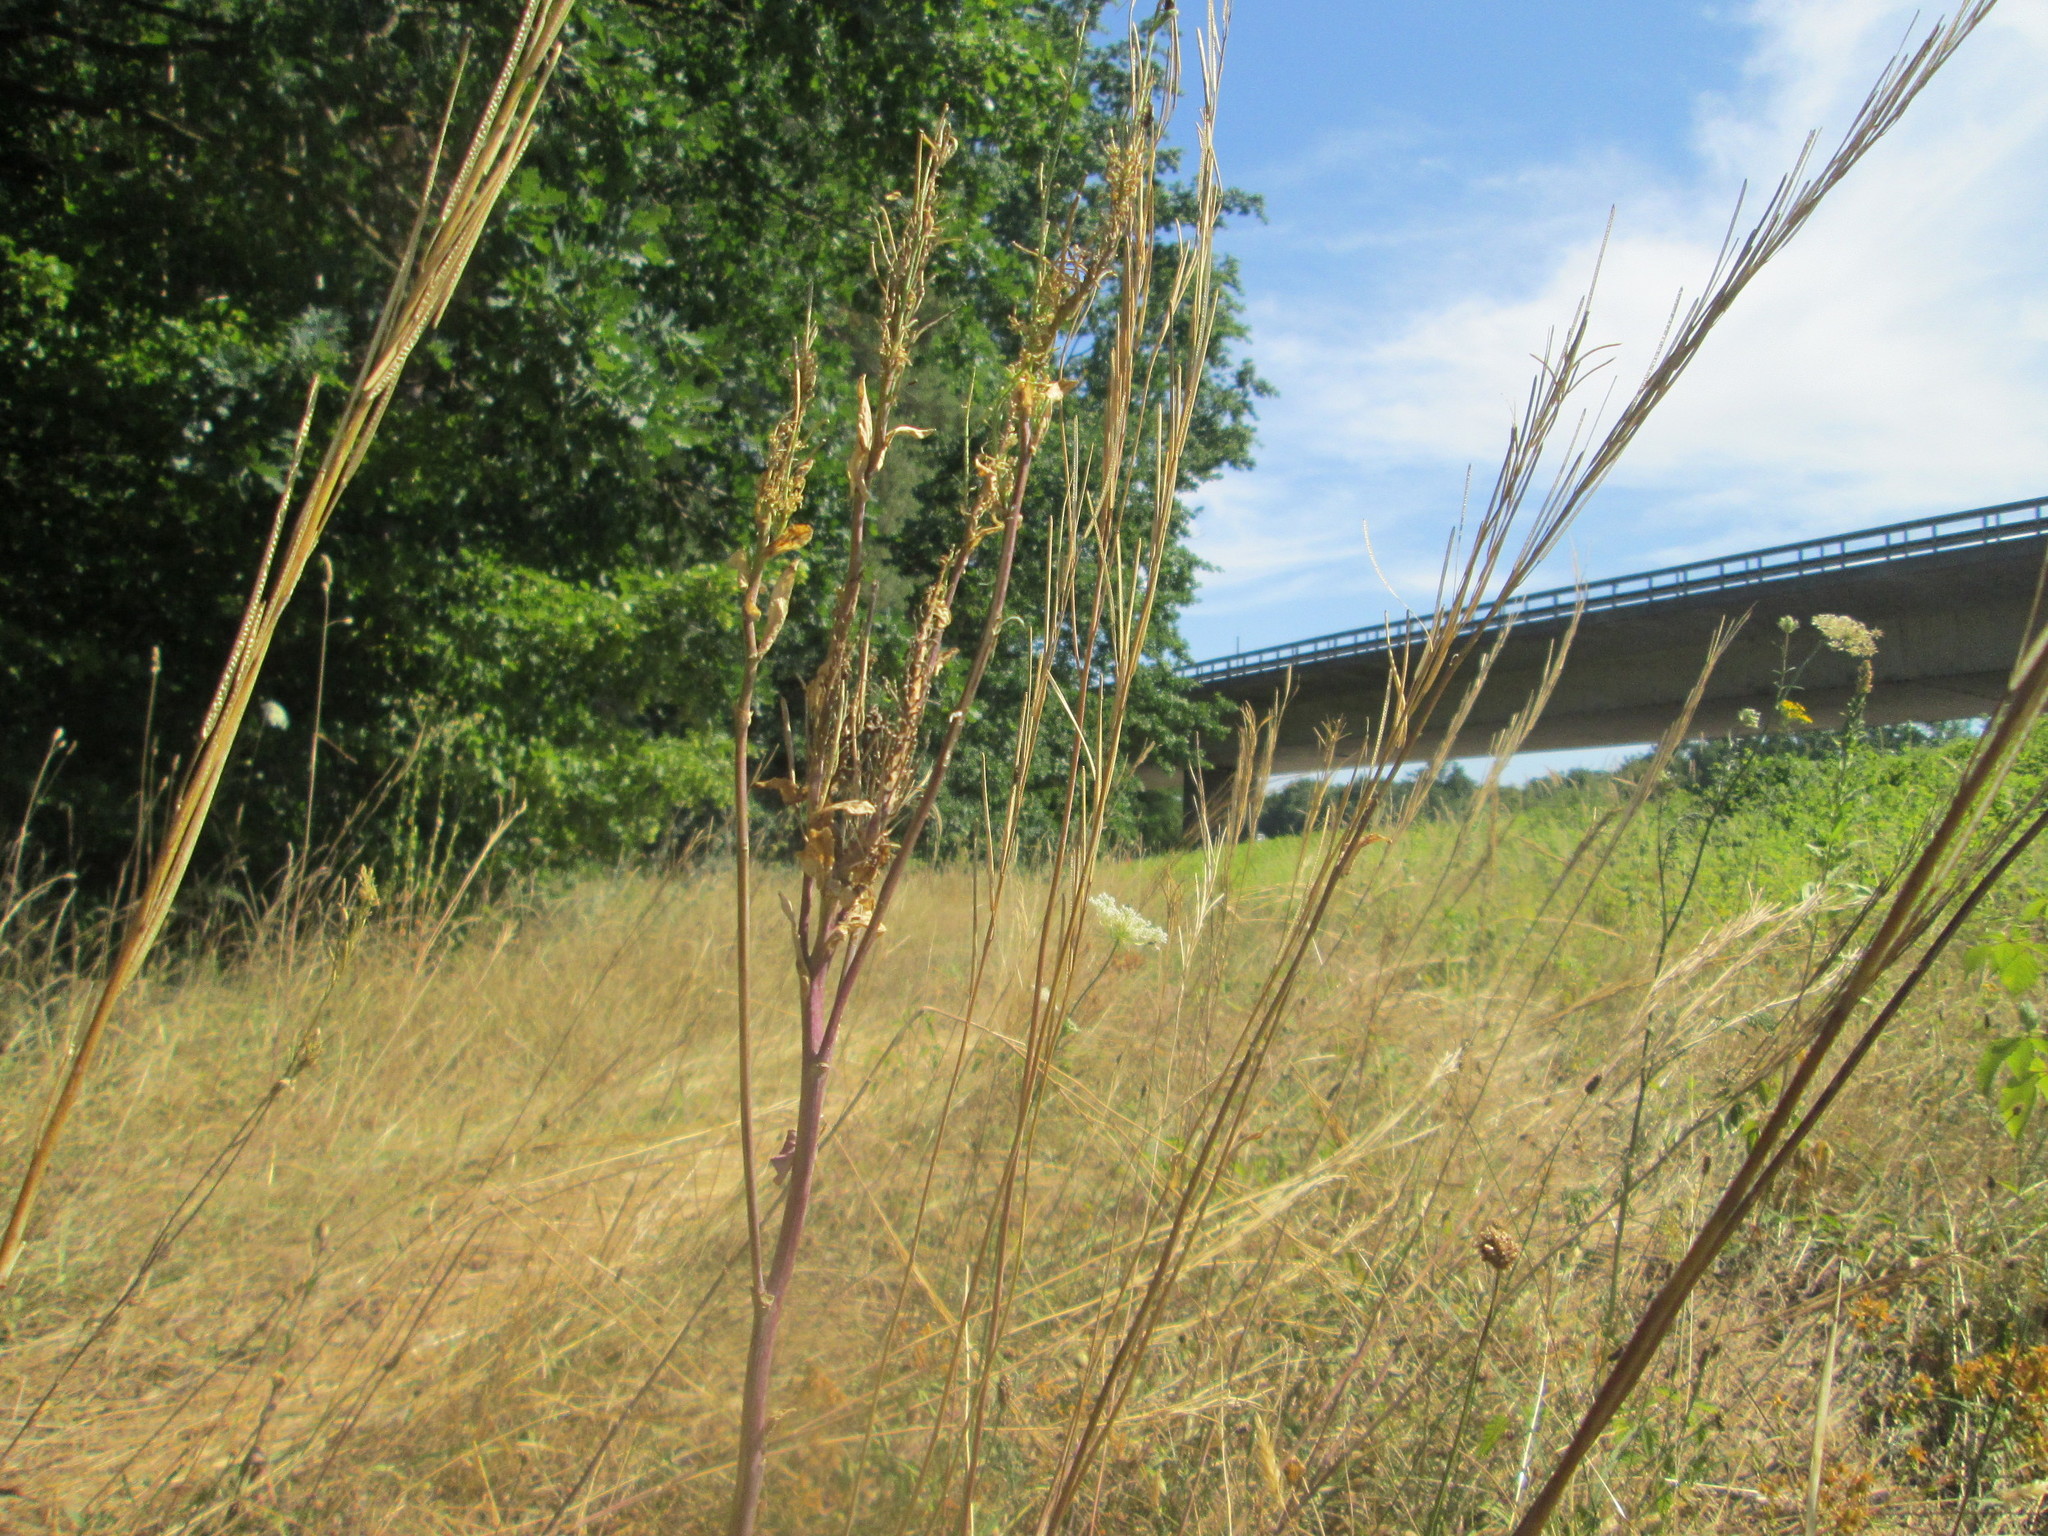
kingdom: Plantae
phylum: Tracheophyta
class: Magnoliopsida
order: Brassicales
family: Brassicaceae
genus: Turritis
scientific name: Turritis glabra
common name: Tower rockcress
